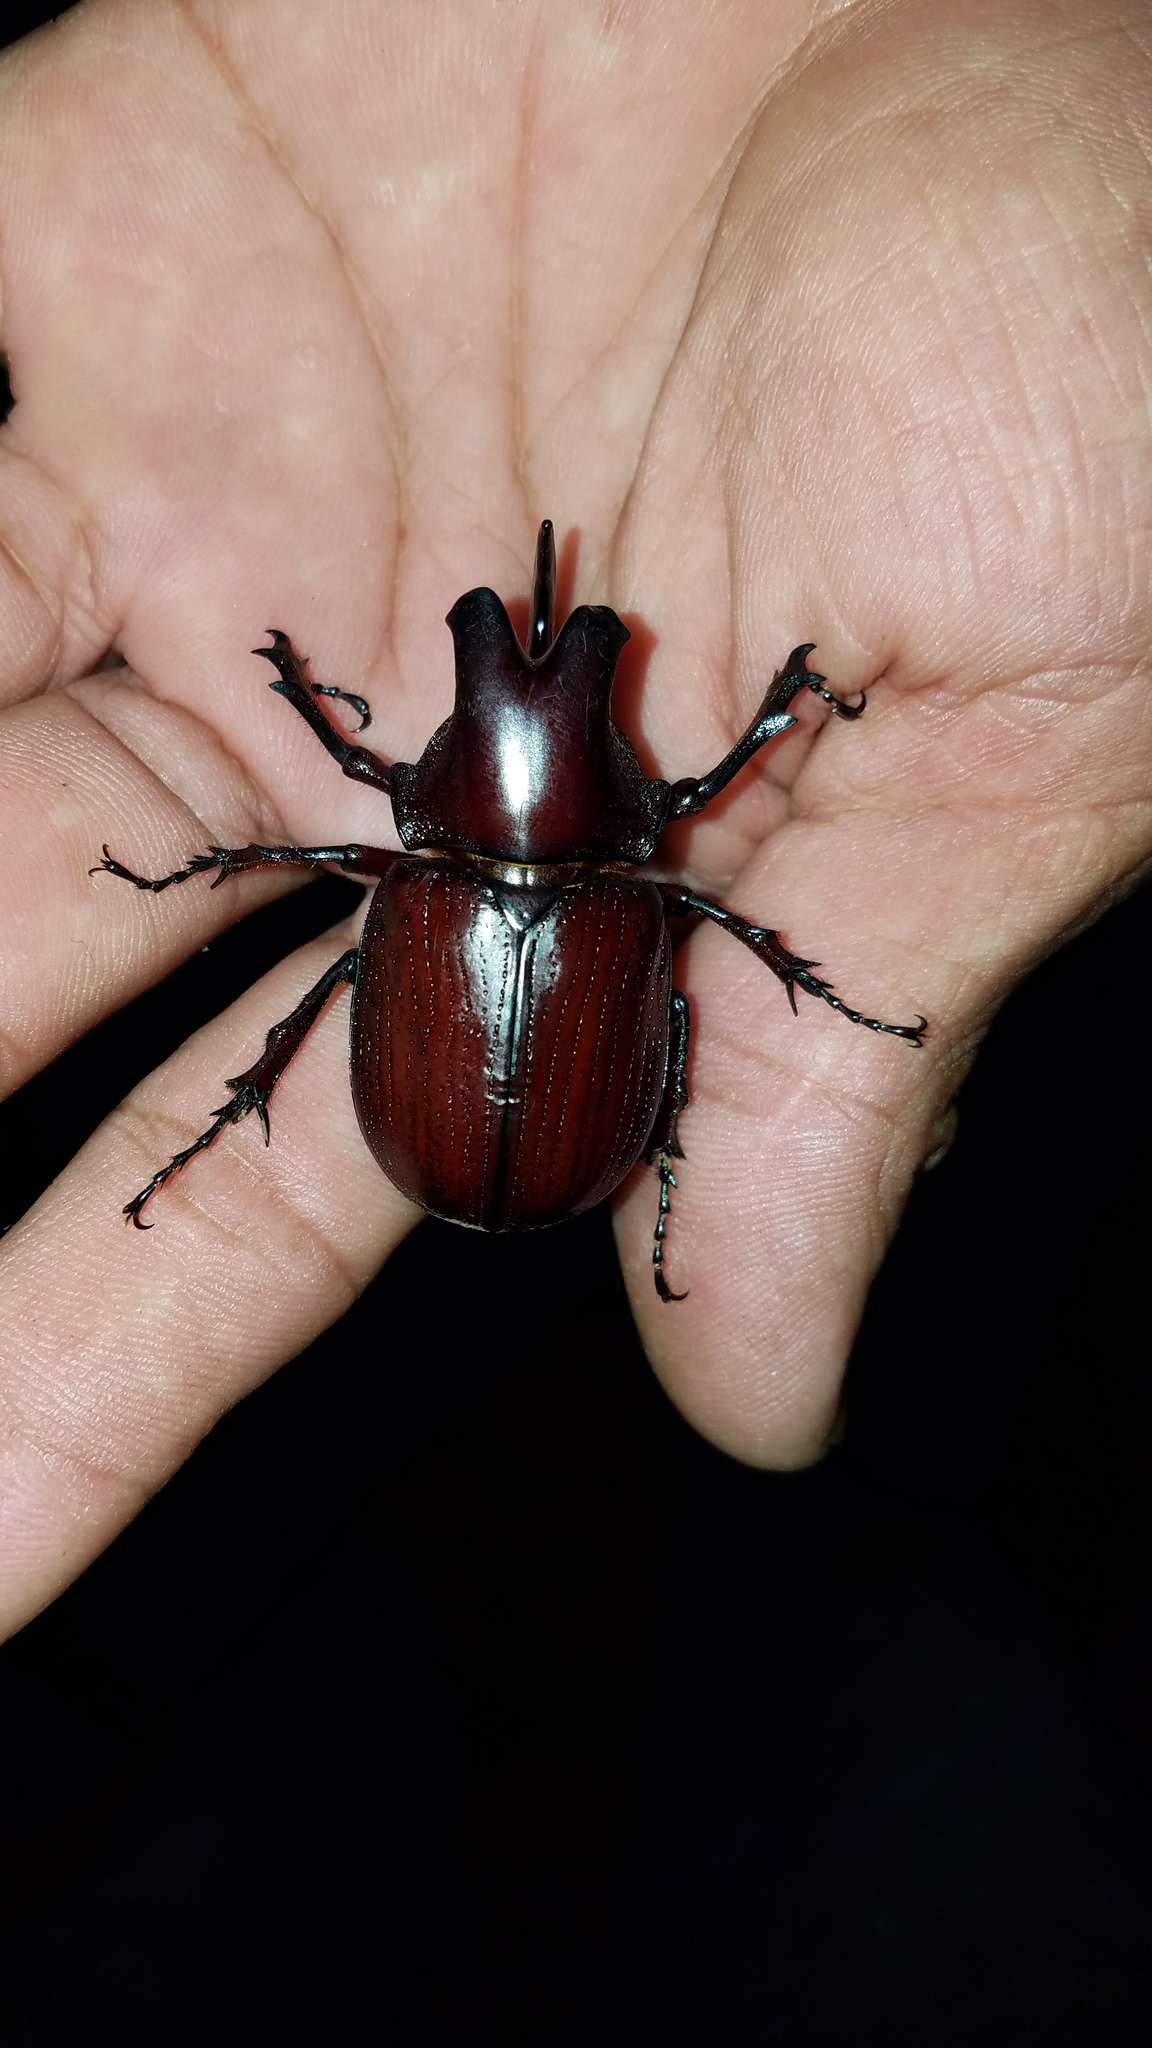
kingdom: Animalia
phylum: Arthropoda
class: Insecta
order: Coleoptera
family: Scarabaeidae
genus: Coelosis
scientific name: Coelosis biloba
